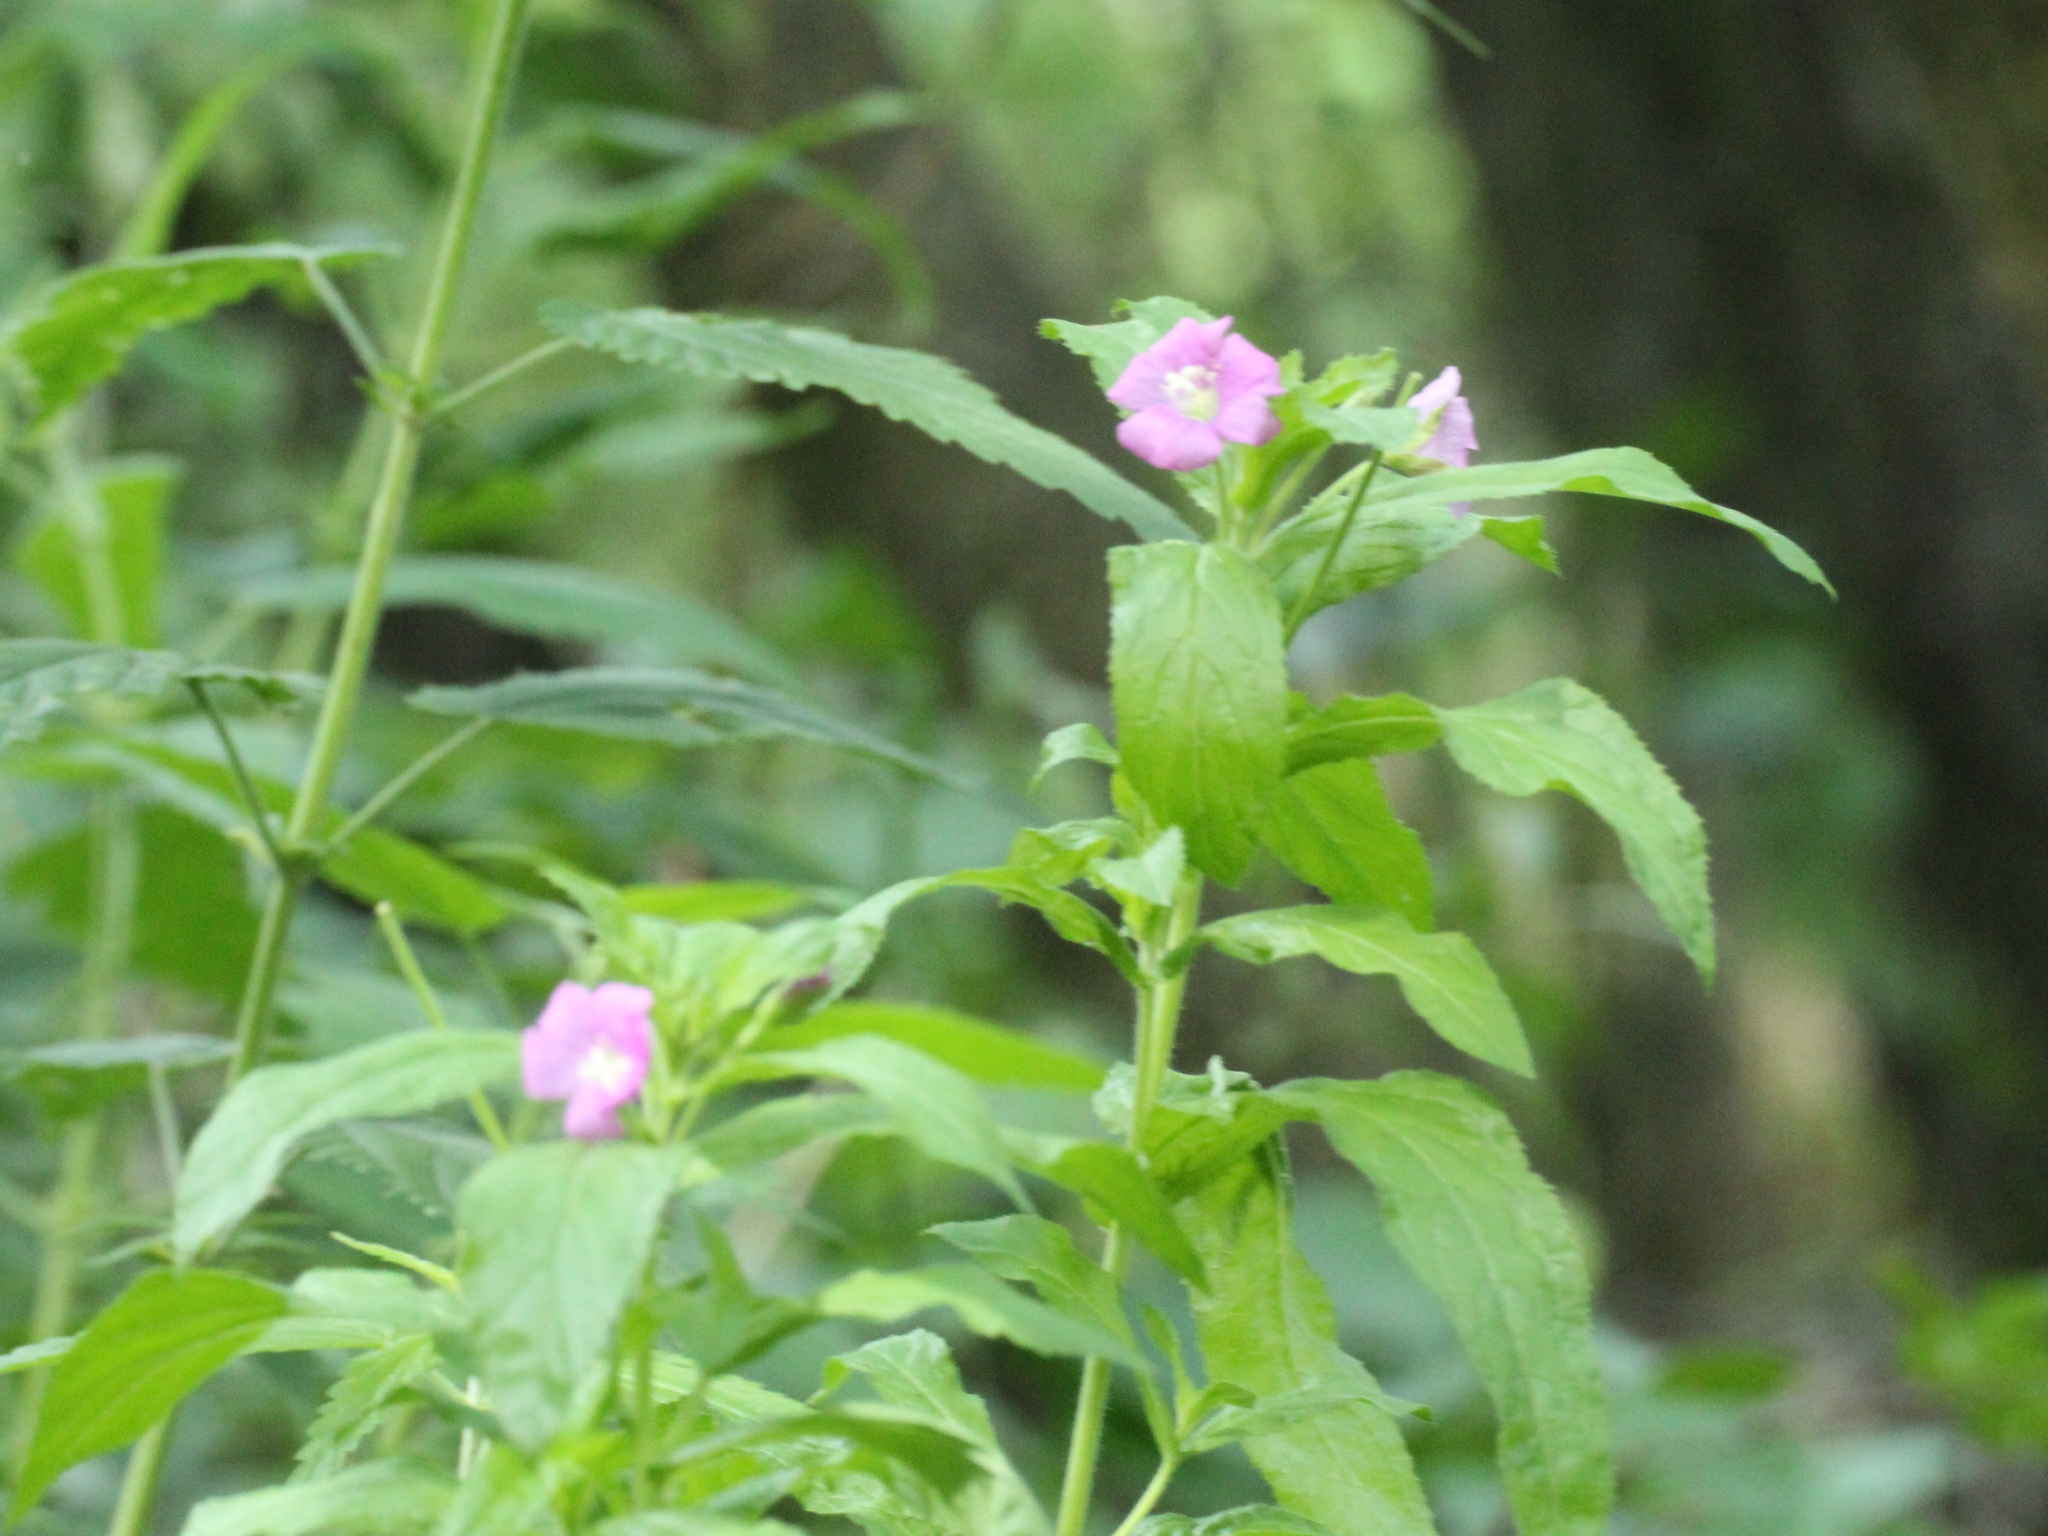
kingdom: Plantae
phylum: Tracheophyta
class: Magnoliopsida
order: Myrtales
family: Onagraceae
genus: Epilobium
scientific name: Epilobium hirsutum
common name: Great willowherb
